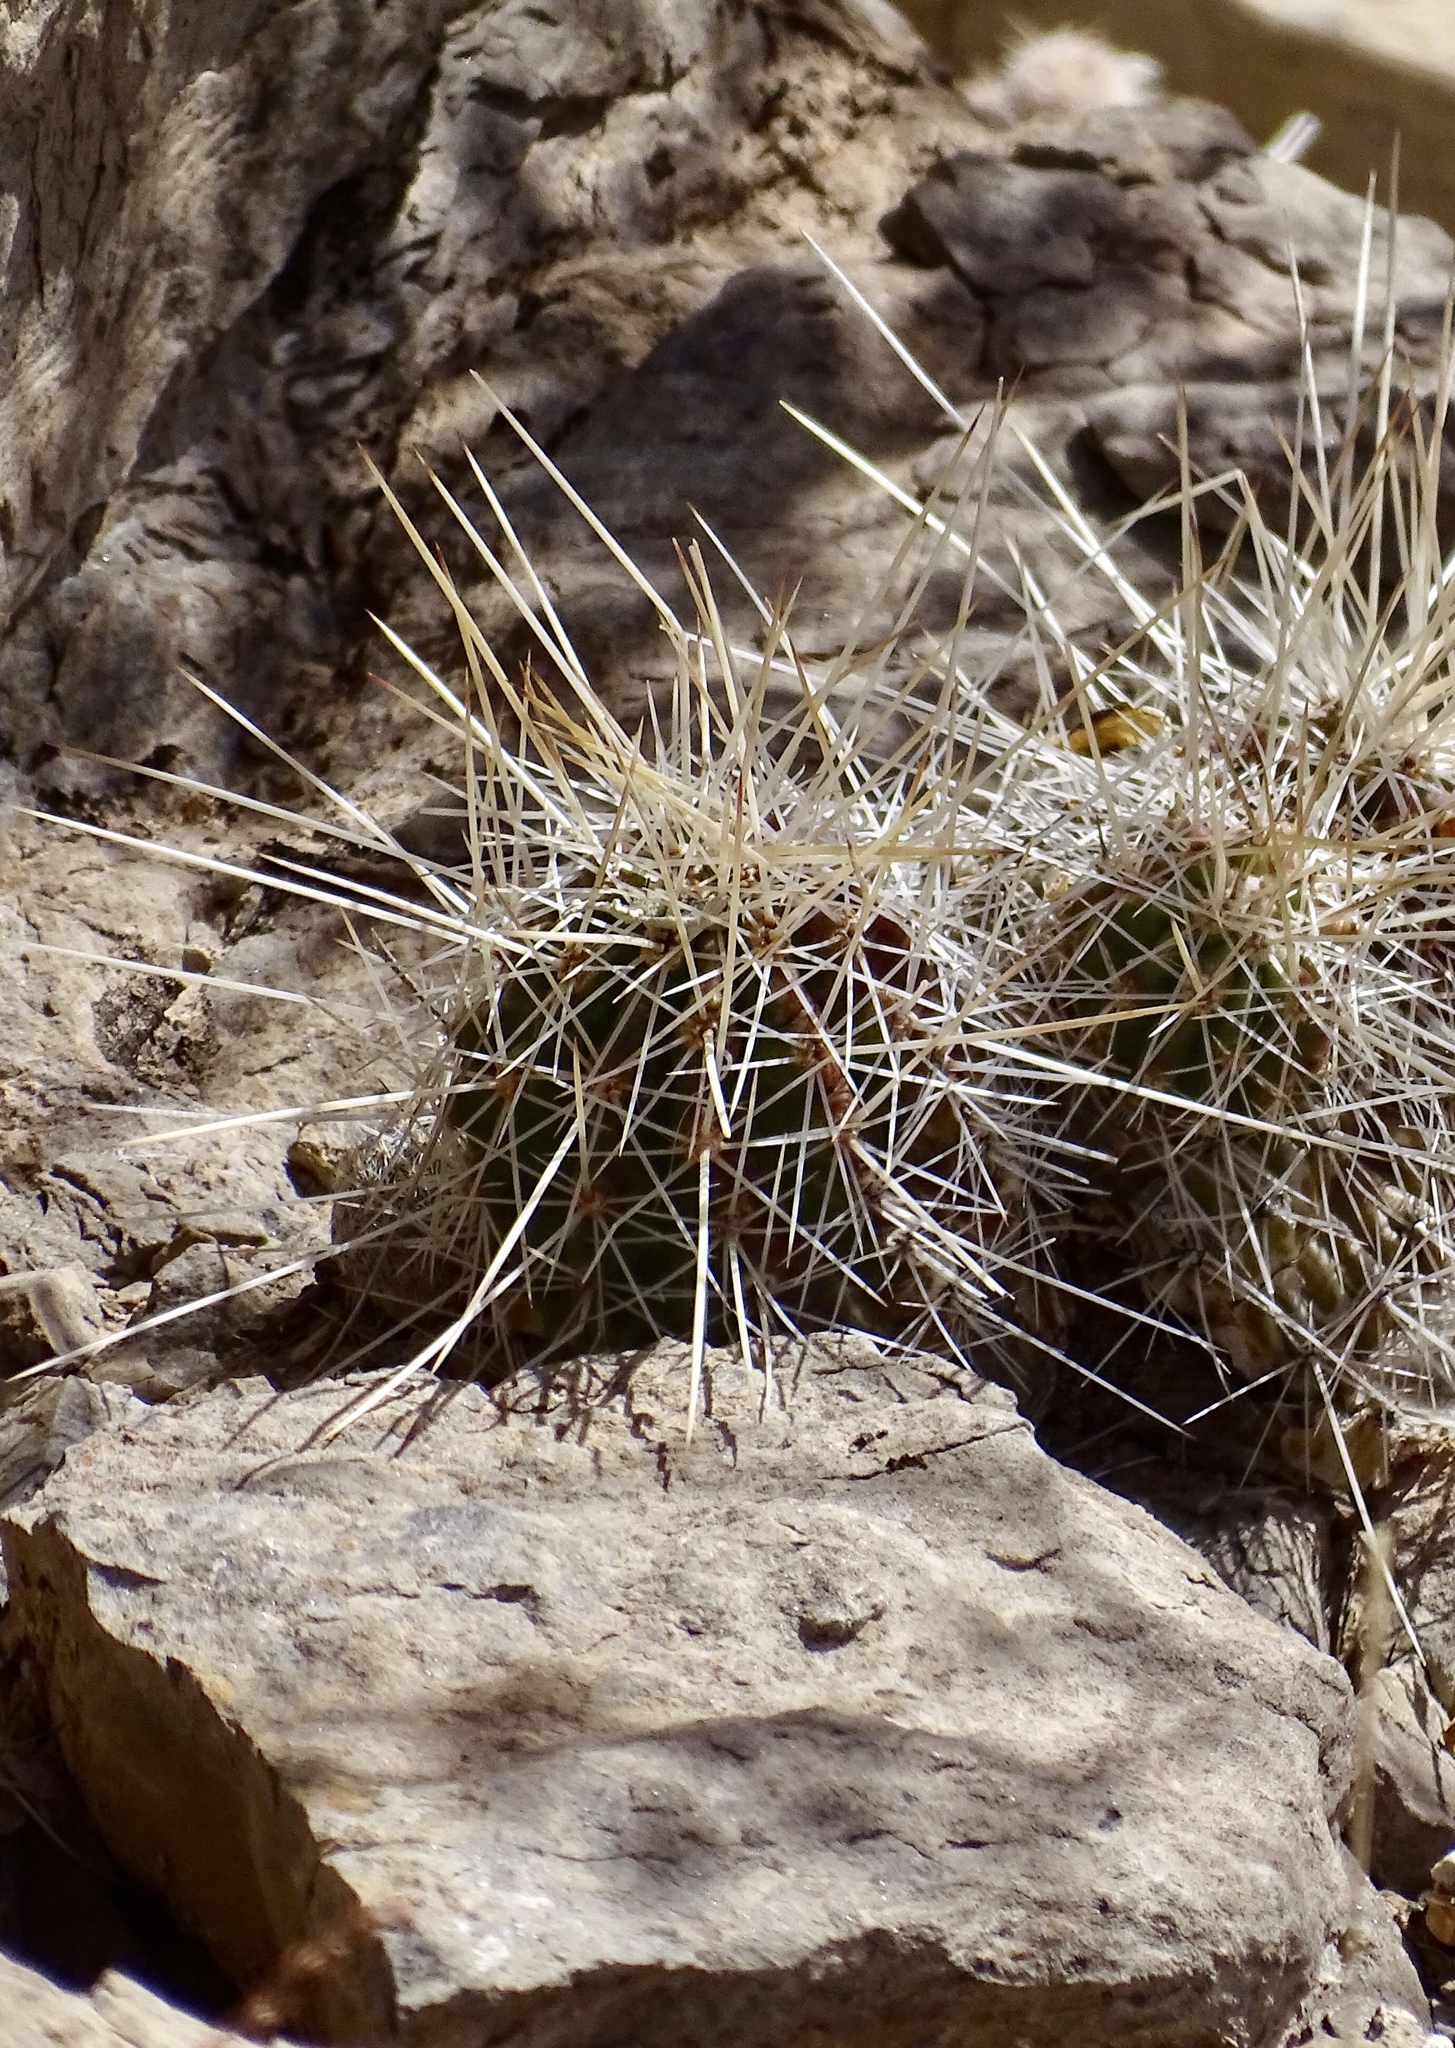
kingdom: Plantae
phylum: Tracheophyta
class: Magnoliopsida
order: Caryophyllales
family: Cactaceae
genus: Echinocereus
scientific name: Echinocereus stramineus
